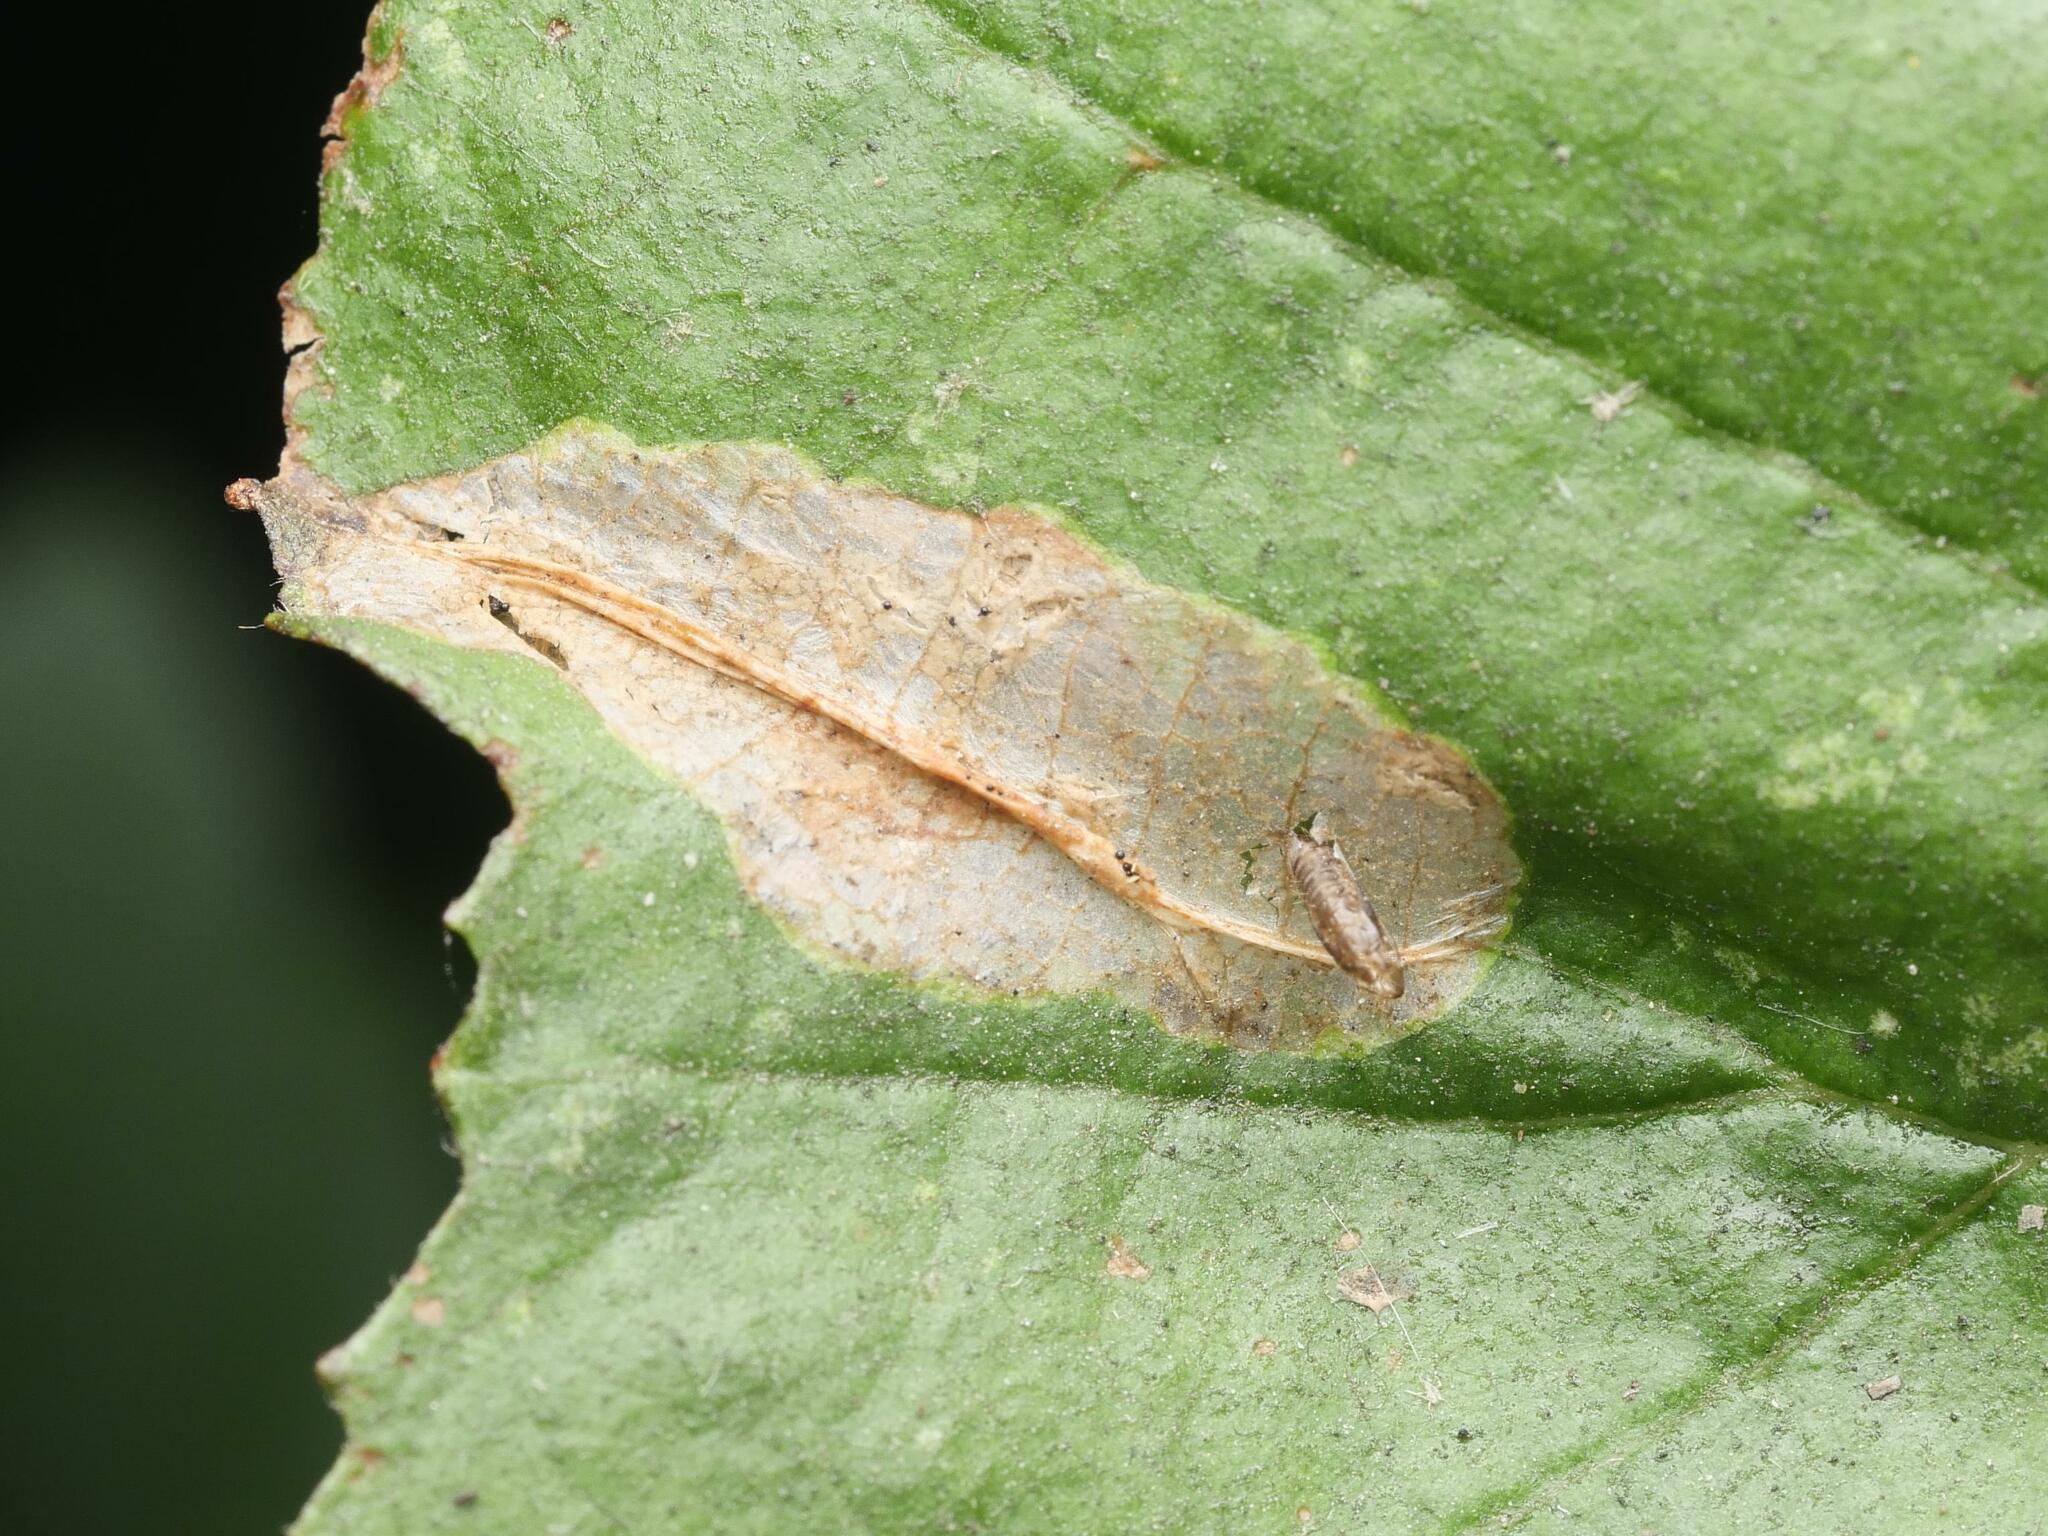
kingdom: Animalia
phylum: Arthropoda
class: Insecta
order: Lepidoptera
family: Gracillariidae
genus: Phyllonorycter
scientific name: Phyllonorycter stettinensis
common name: Small alder midget
